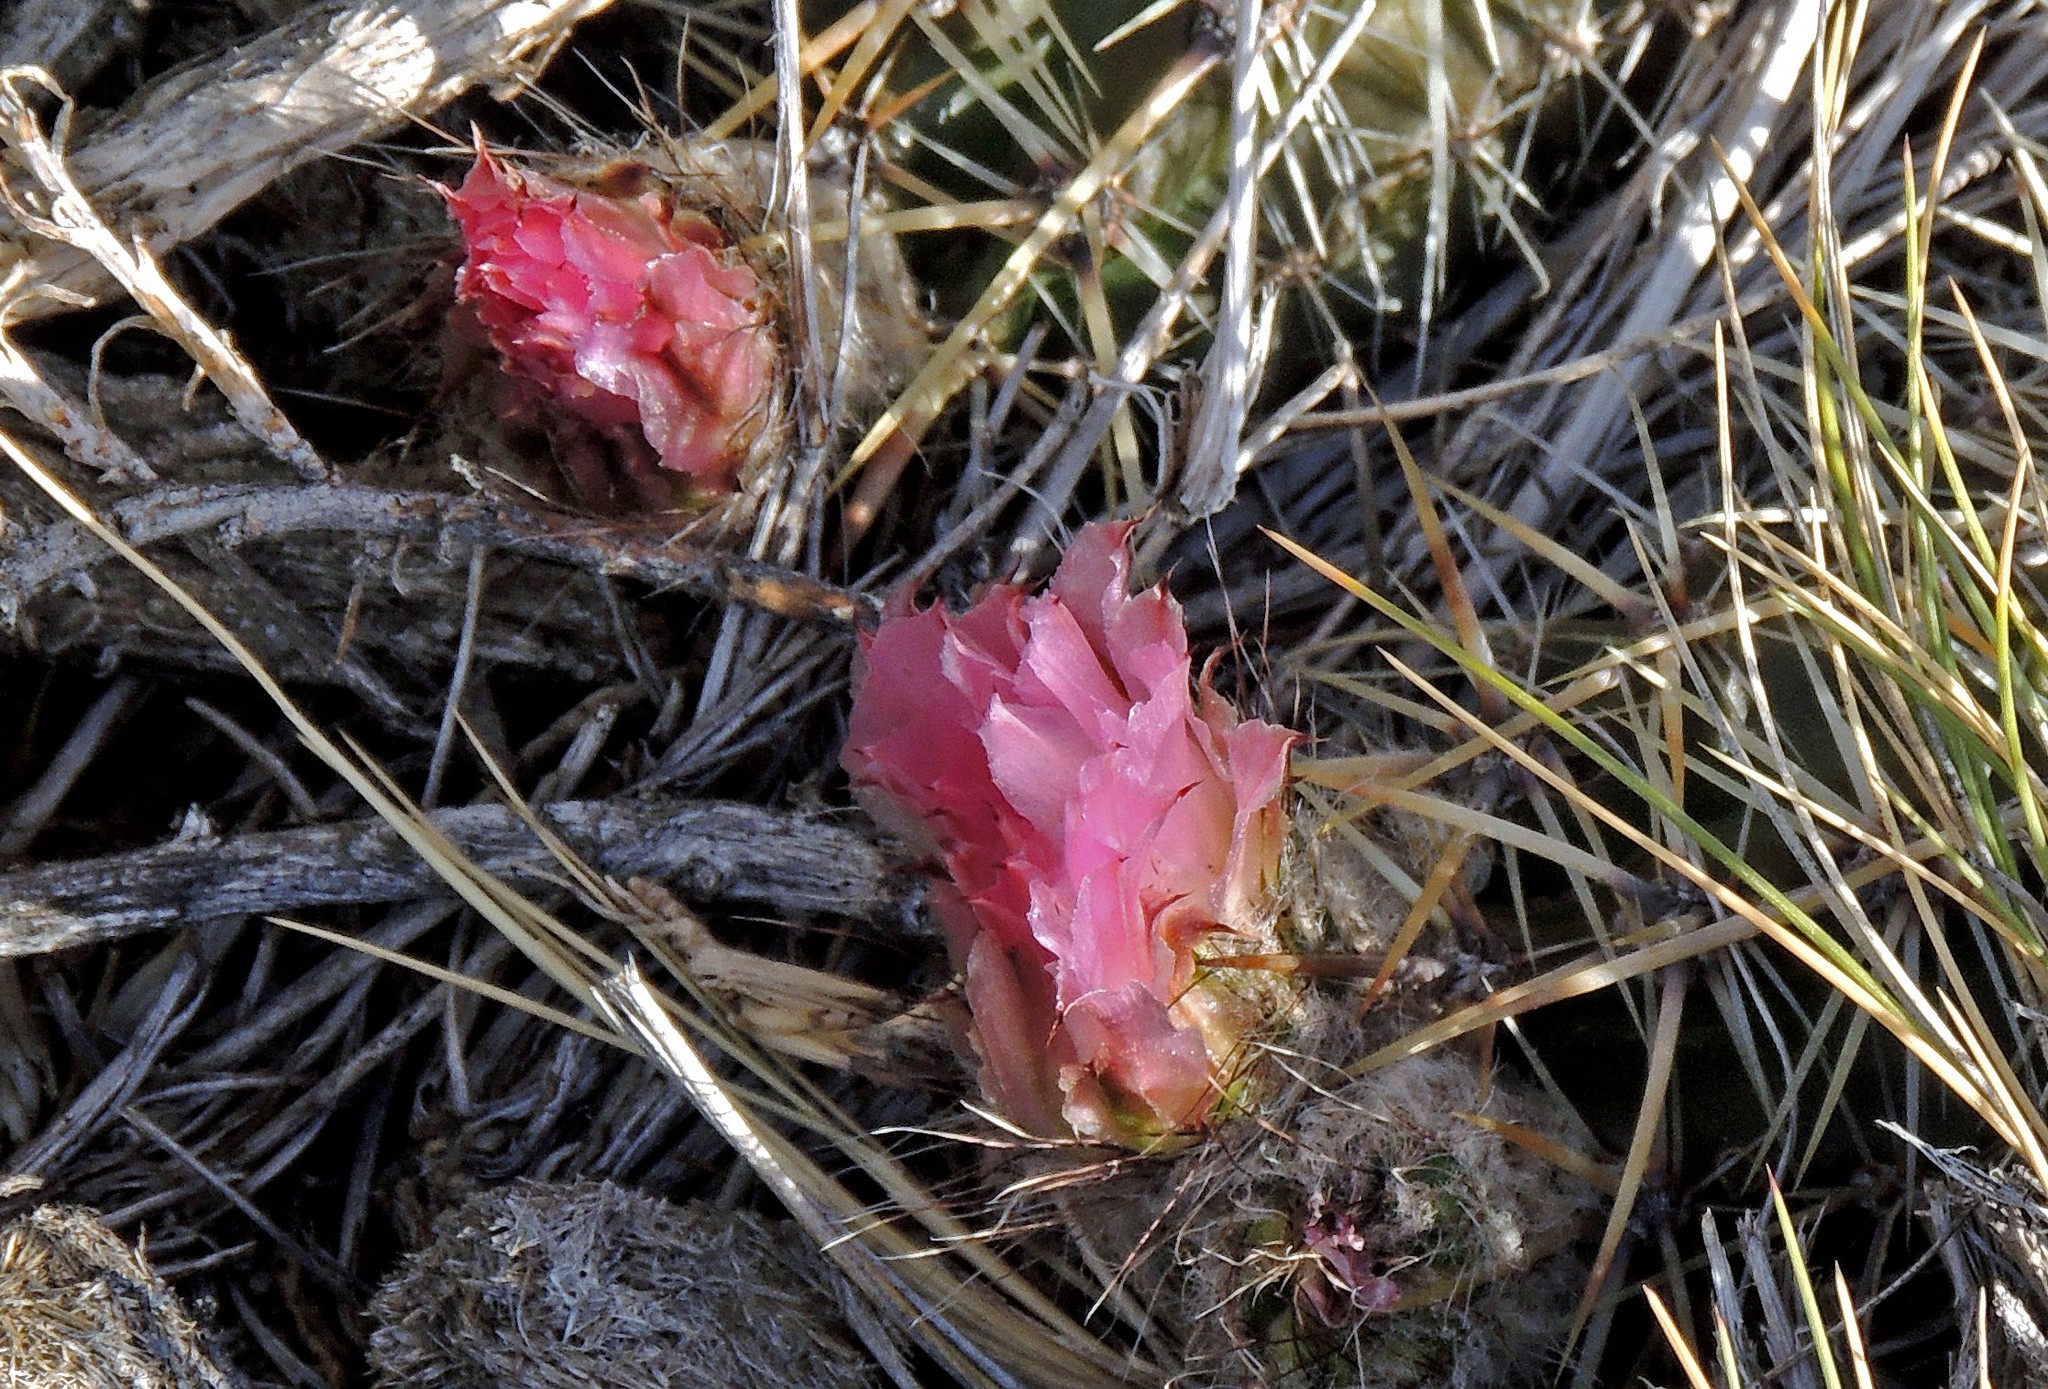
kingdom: Plantae
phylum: Tracheophyta
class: Magnoliopsida
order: Caryophyllales
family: Cactaceae
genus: Austrocactus
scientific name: Austrocactus aonikenkensis
